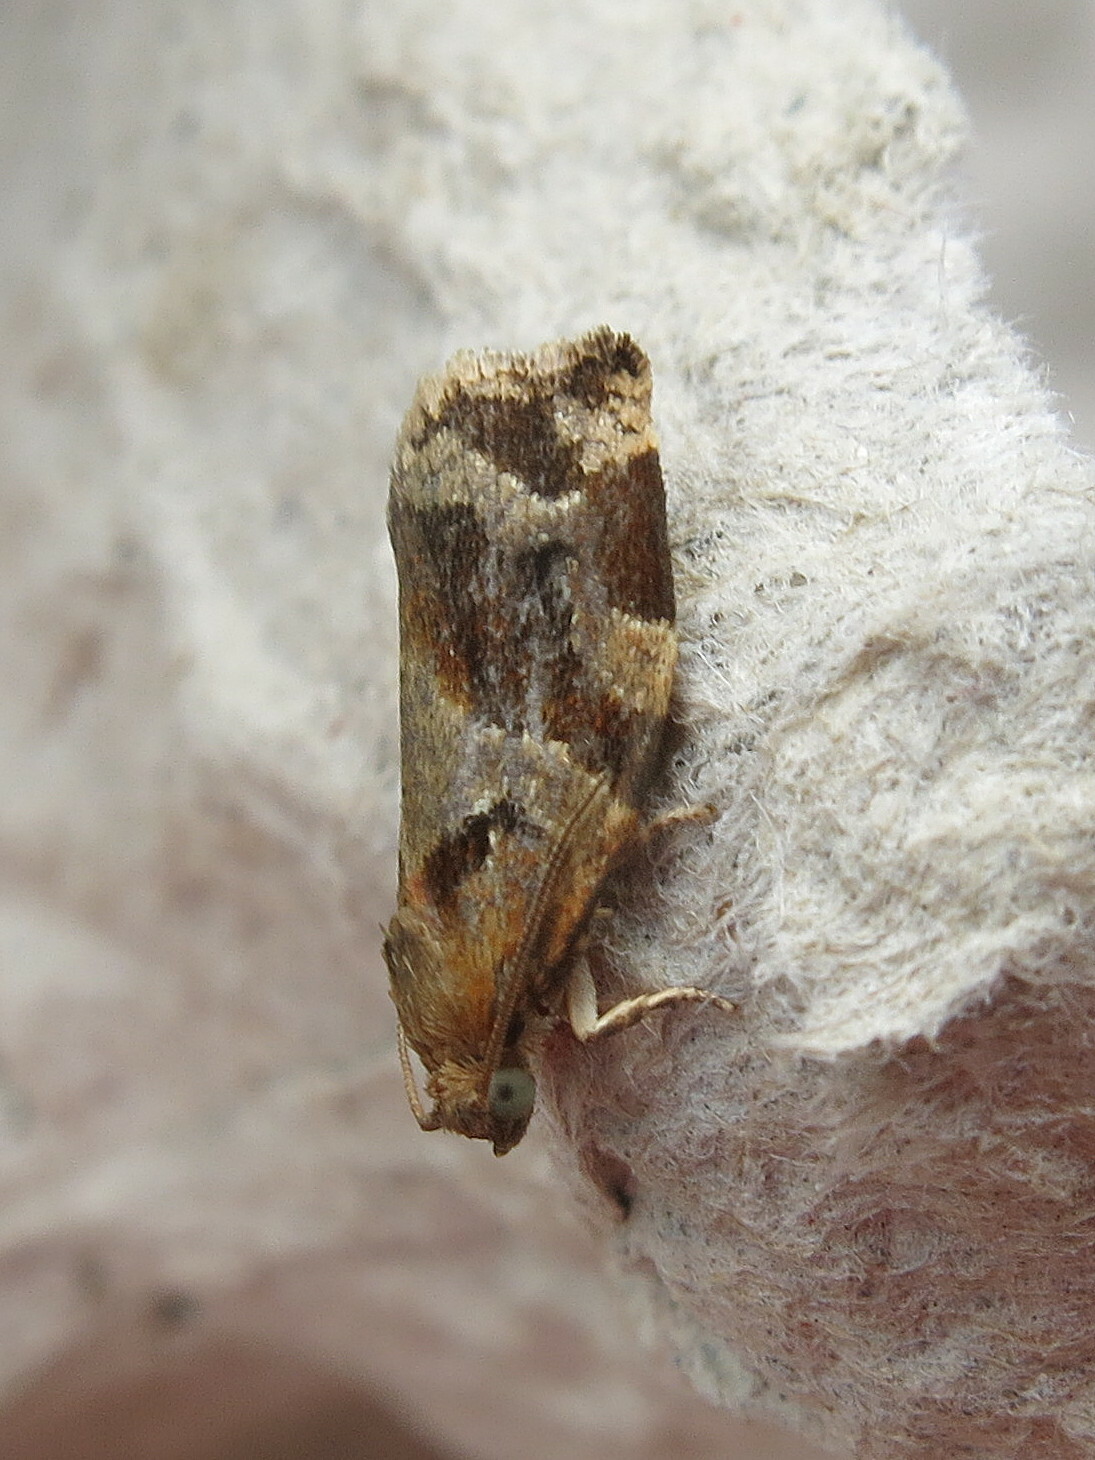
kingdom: Animalia
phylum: Arthropoda
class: Insecta
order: Lepidoptera
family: Tortricidae
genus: Archips
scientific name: Archips xylosteana
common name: Variegated golden tortrix
